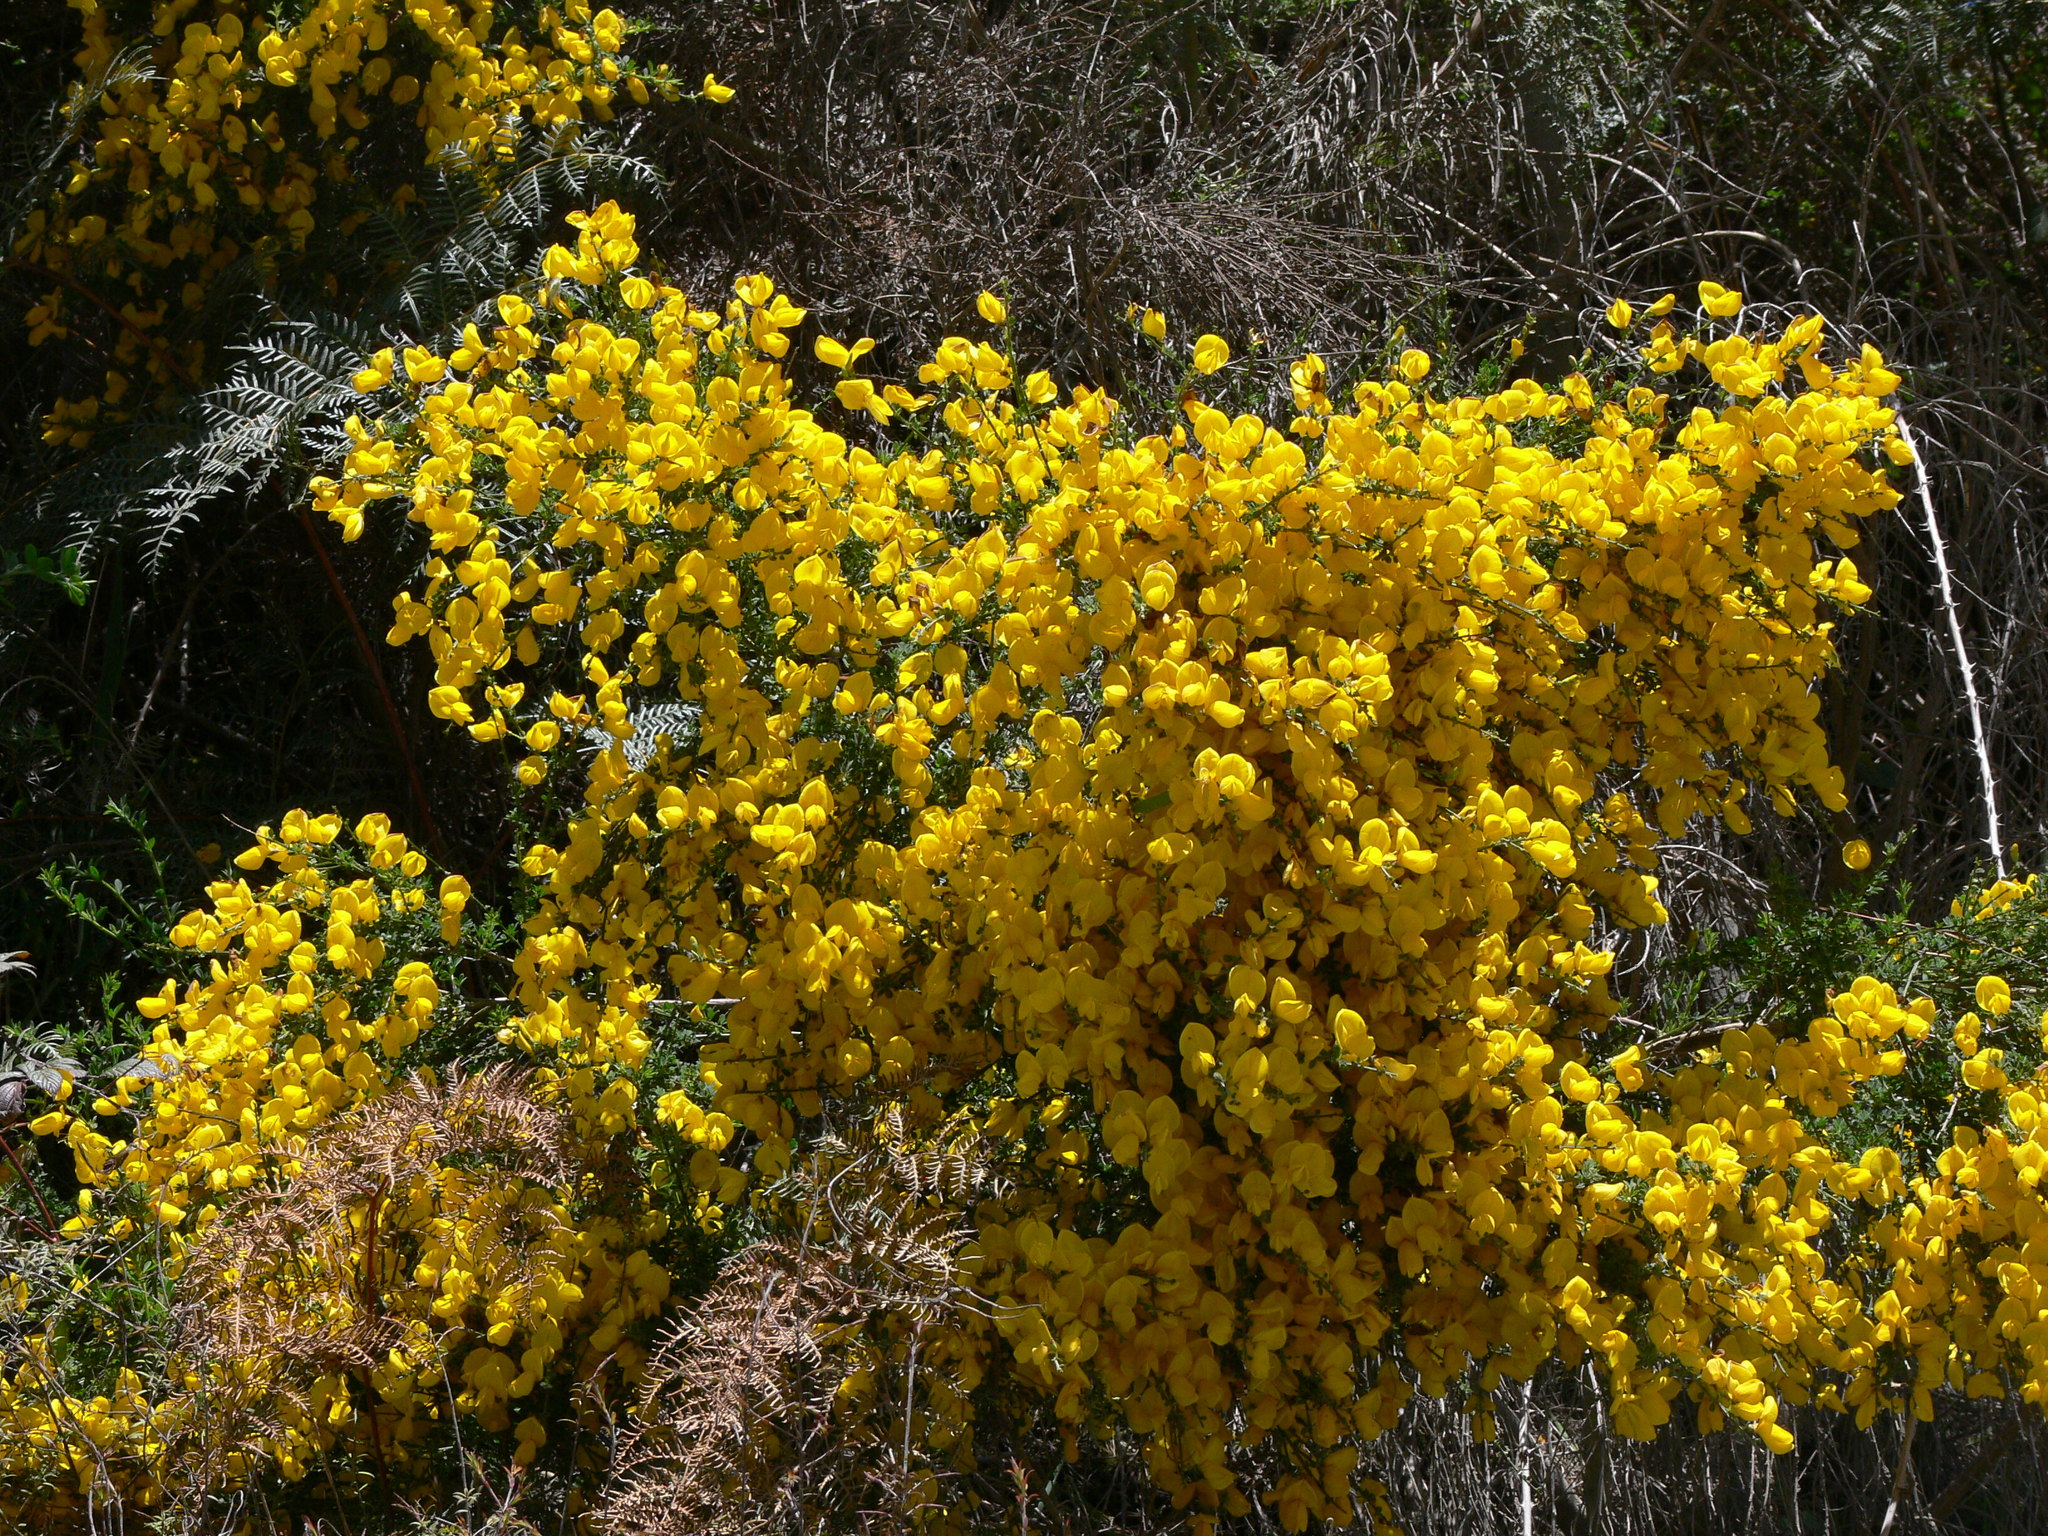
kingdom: Plantae
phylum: Tracheophyta
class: Magnoliopsida
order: Fabales
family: Fabaceae
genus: Cytisus
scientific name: Cytisus scoparius
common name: Scotch broom
